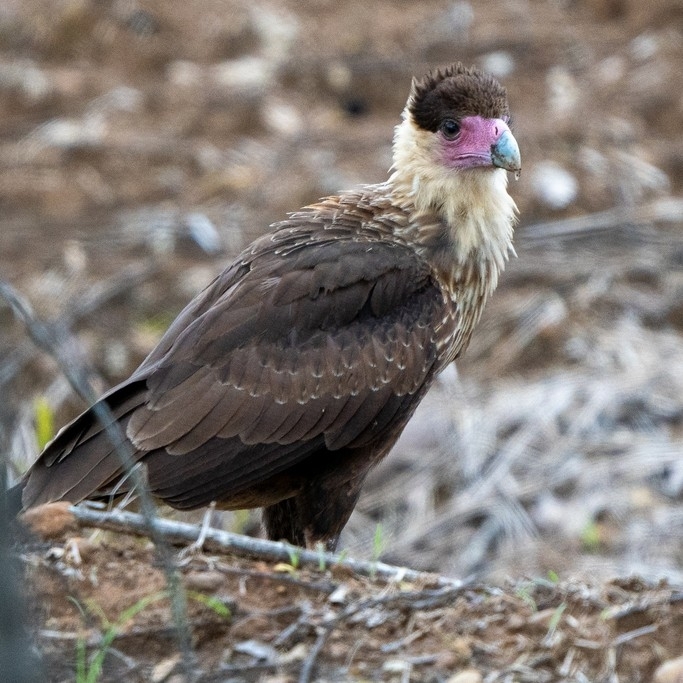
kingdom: Animalia
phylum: Chordata
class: Aves
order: Falconiformes
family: Falconidae
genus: Caracara
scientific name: Caracara plancus
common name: Southern caracara
